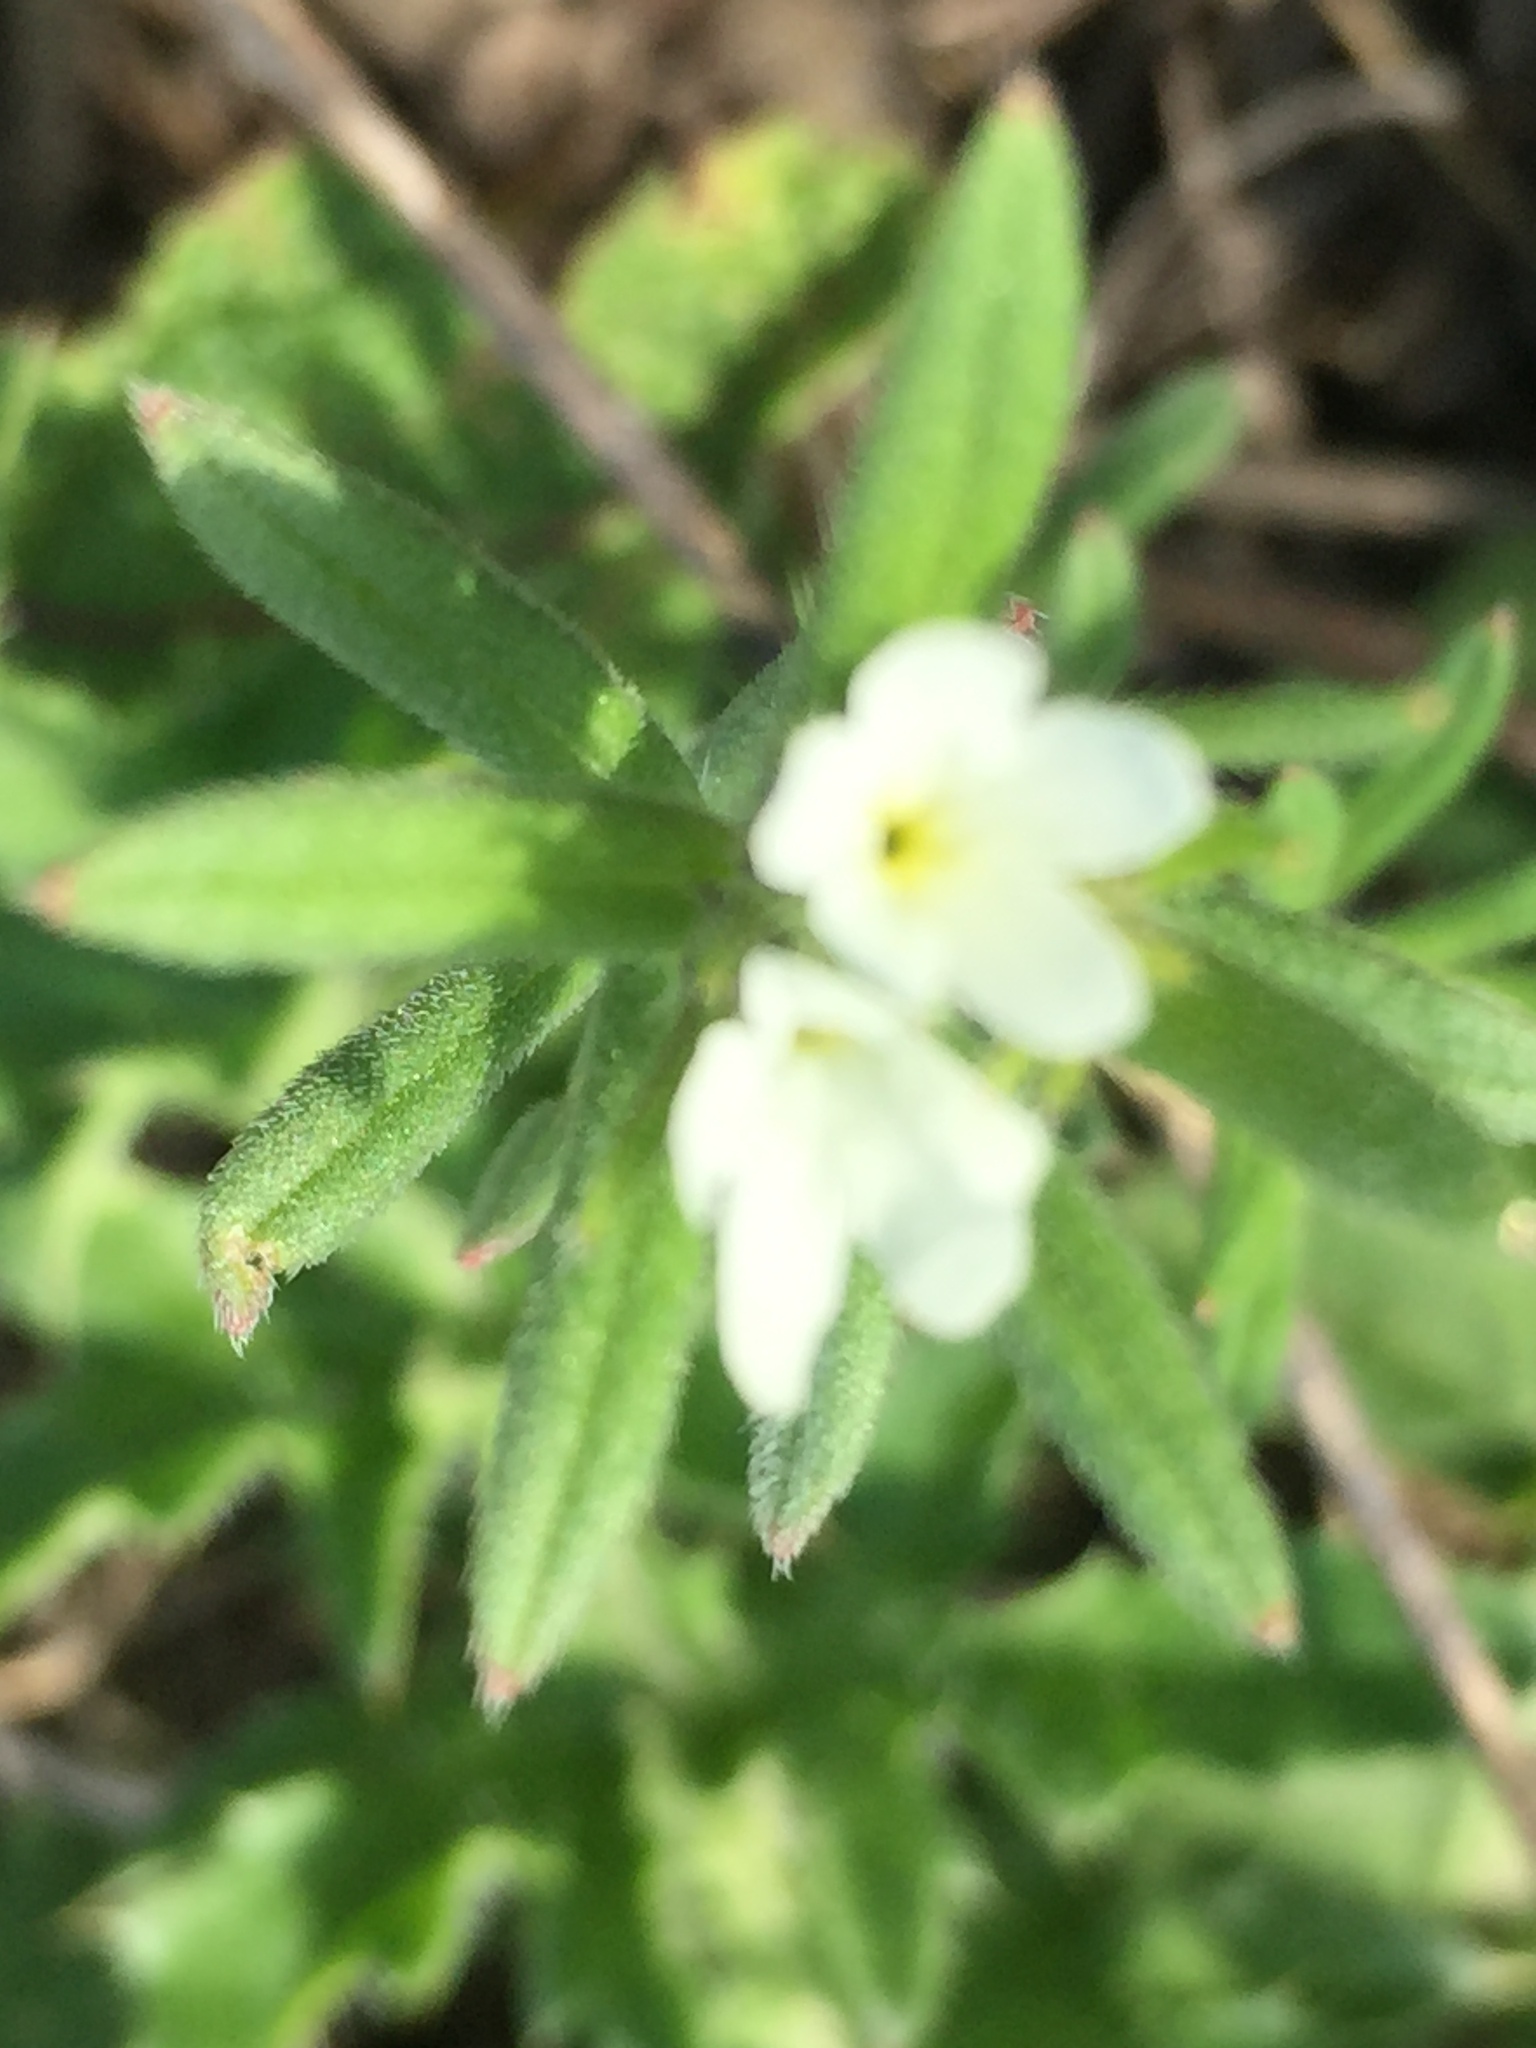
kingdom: Plantae
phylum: Tracheophyta
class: Magnoliopsida
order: Boraginales
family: Boraginaceae
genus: Buglossoides
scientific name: Buglossoides arvensis
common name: Corn gromwell
